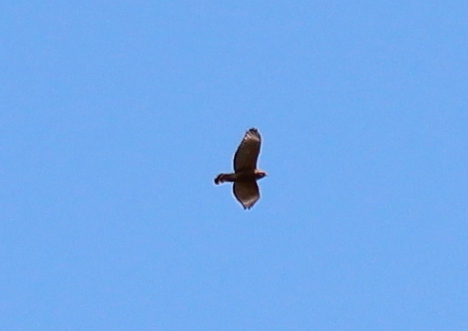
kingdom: Animalia
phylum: Chordata
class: Aves
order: Accipitriformes
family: Accipitridae
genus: Buteo
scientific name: Buteo lineatus
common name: Red-shouldered hawk
